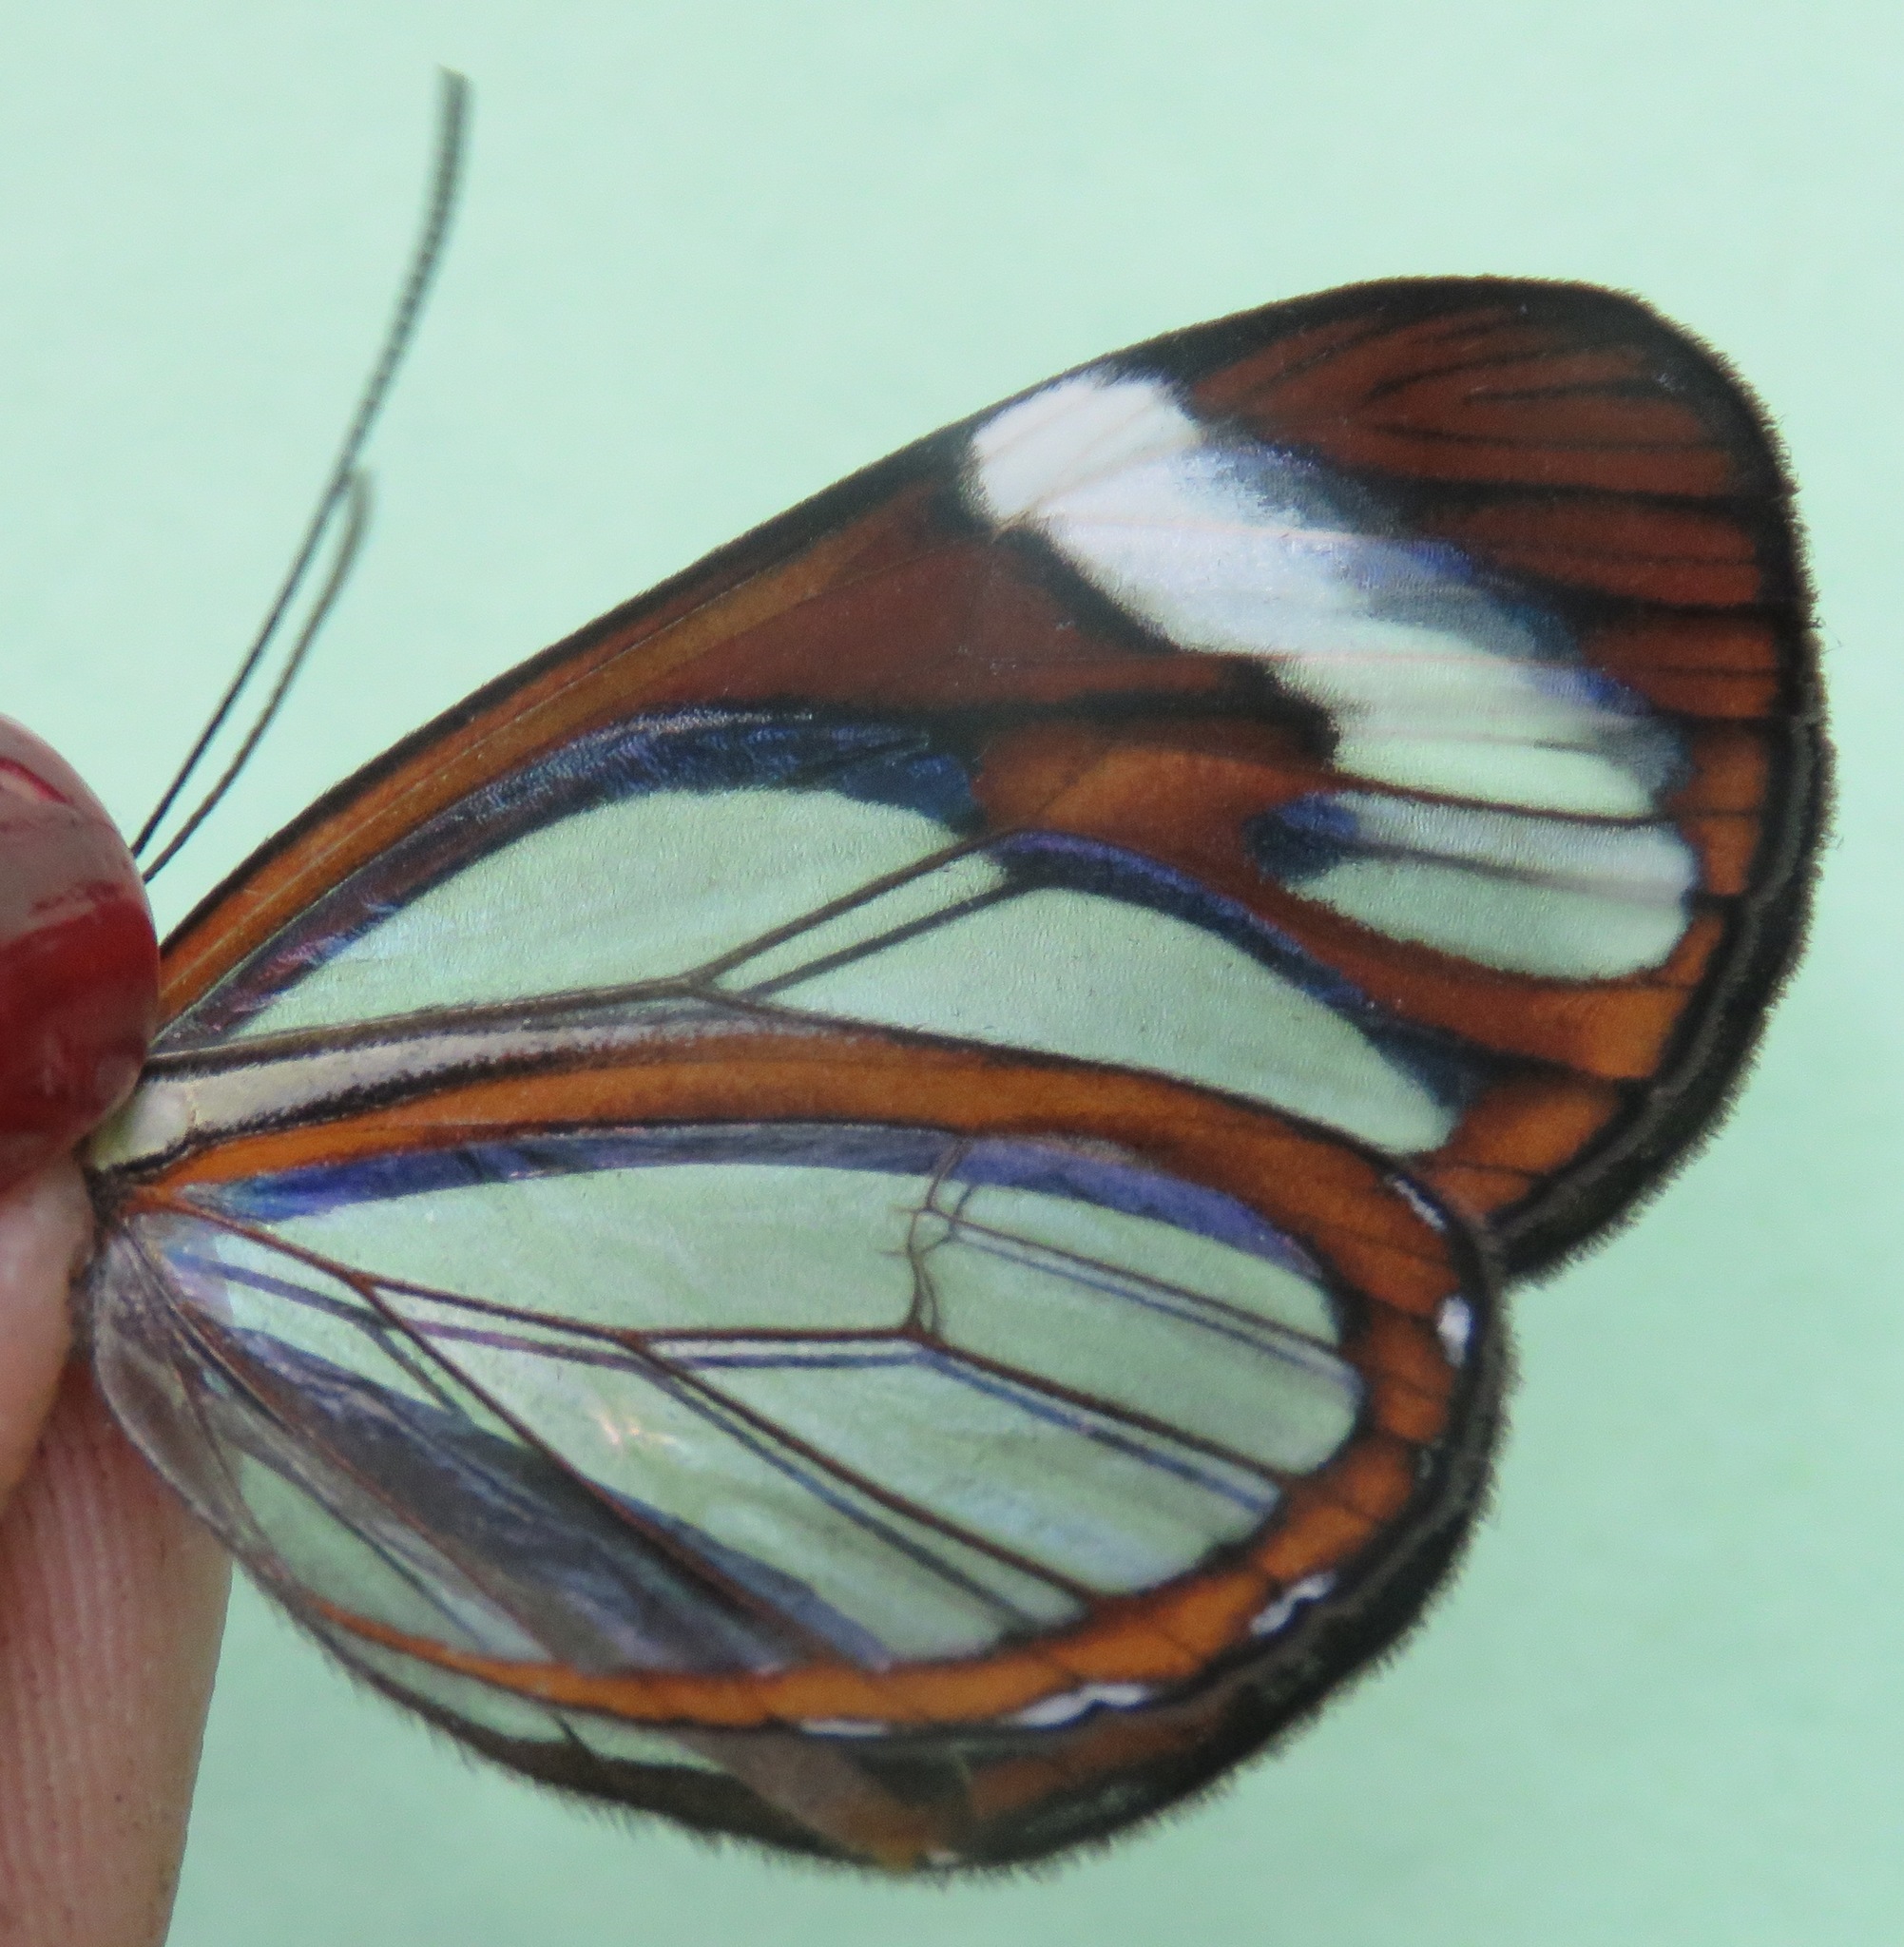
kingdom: Animalia
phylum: Arthropoda
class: Insecta
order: Lepidoptera
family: Nymphalidae
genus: Ithomia
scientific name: Ithomia patilla
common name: Patilla clearwing
